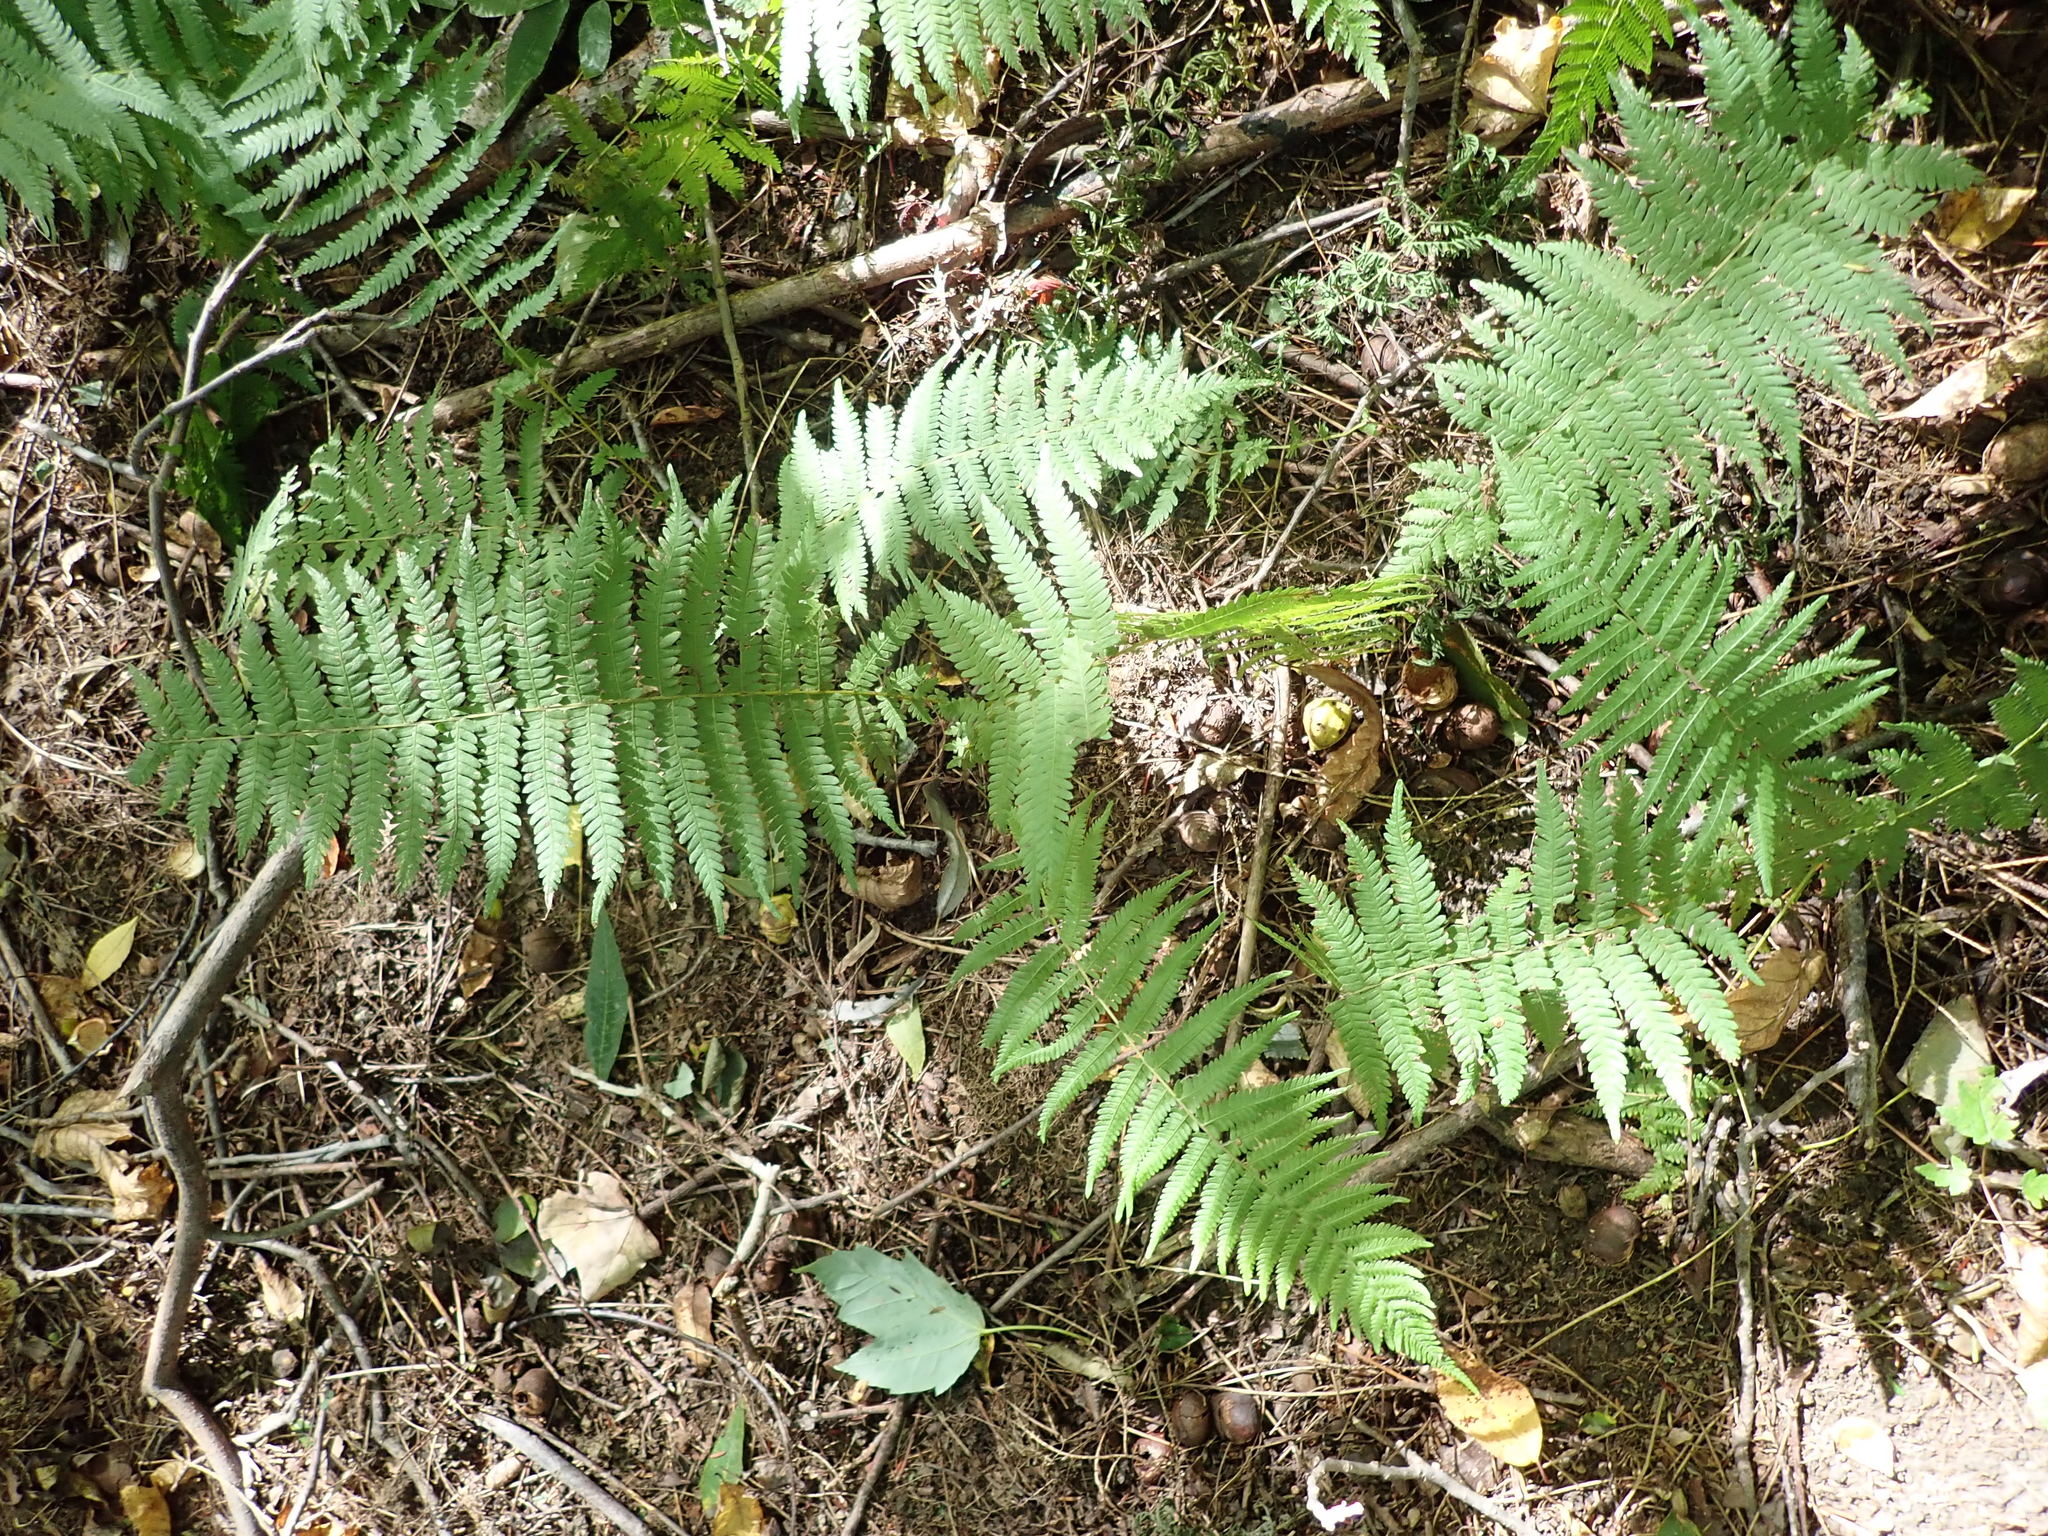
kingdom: Plantae
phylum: Tracheophyta
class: Polypodiopsida
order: Polypodiales
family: Thelypteridaceae
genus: Amauropelta
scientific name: Amauropelta noveboracensis
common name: New york fern
